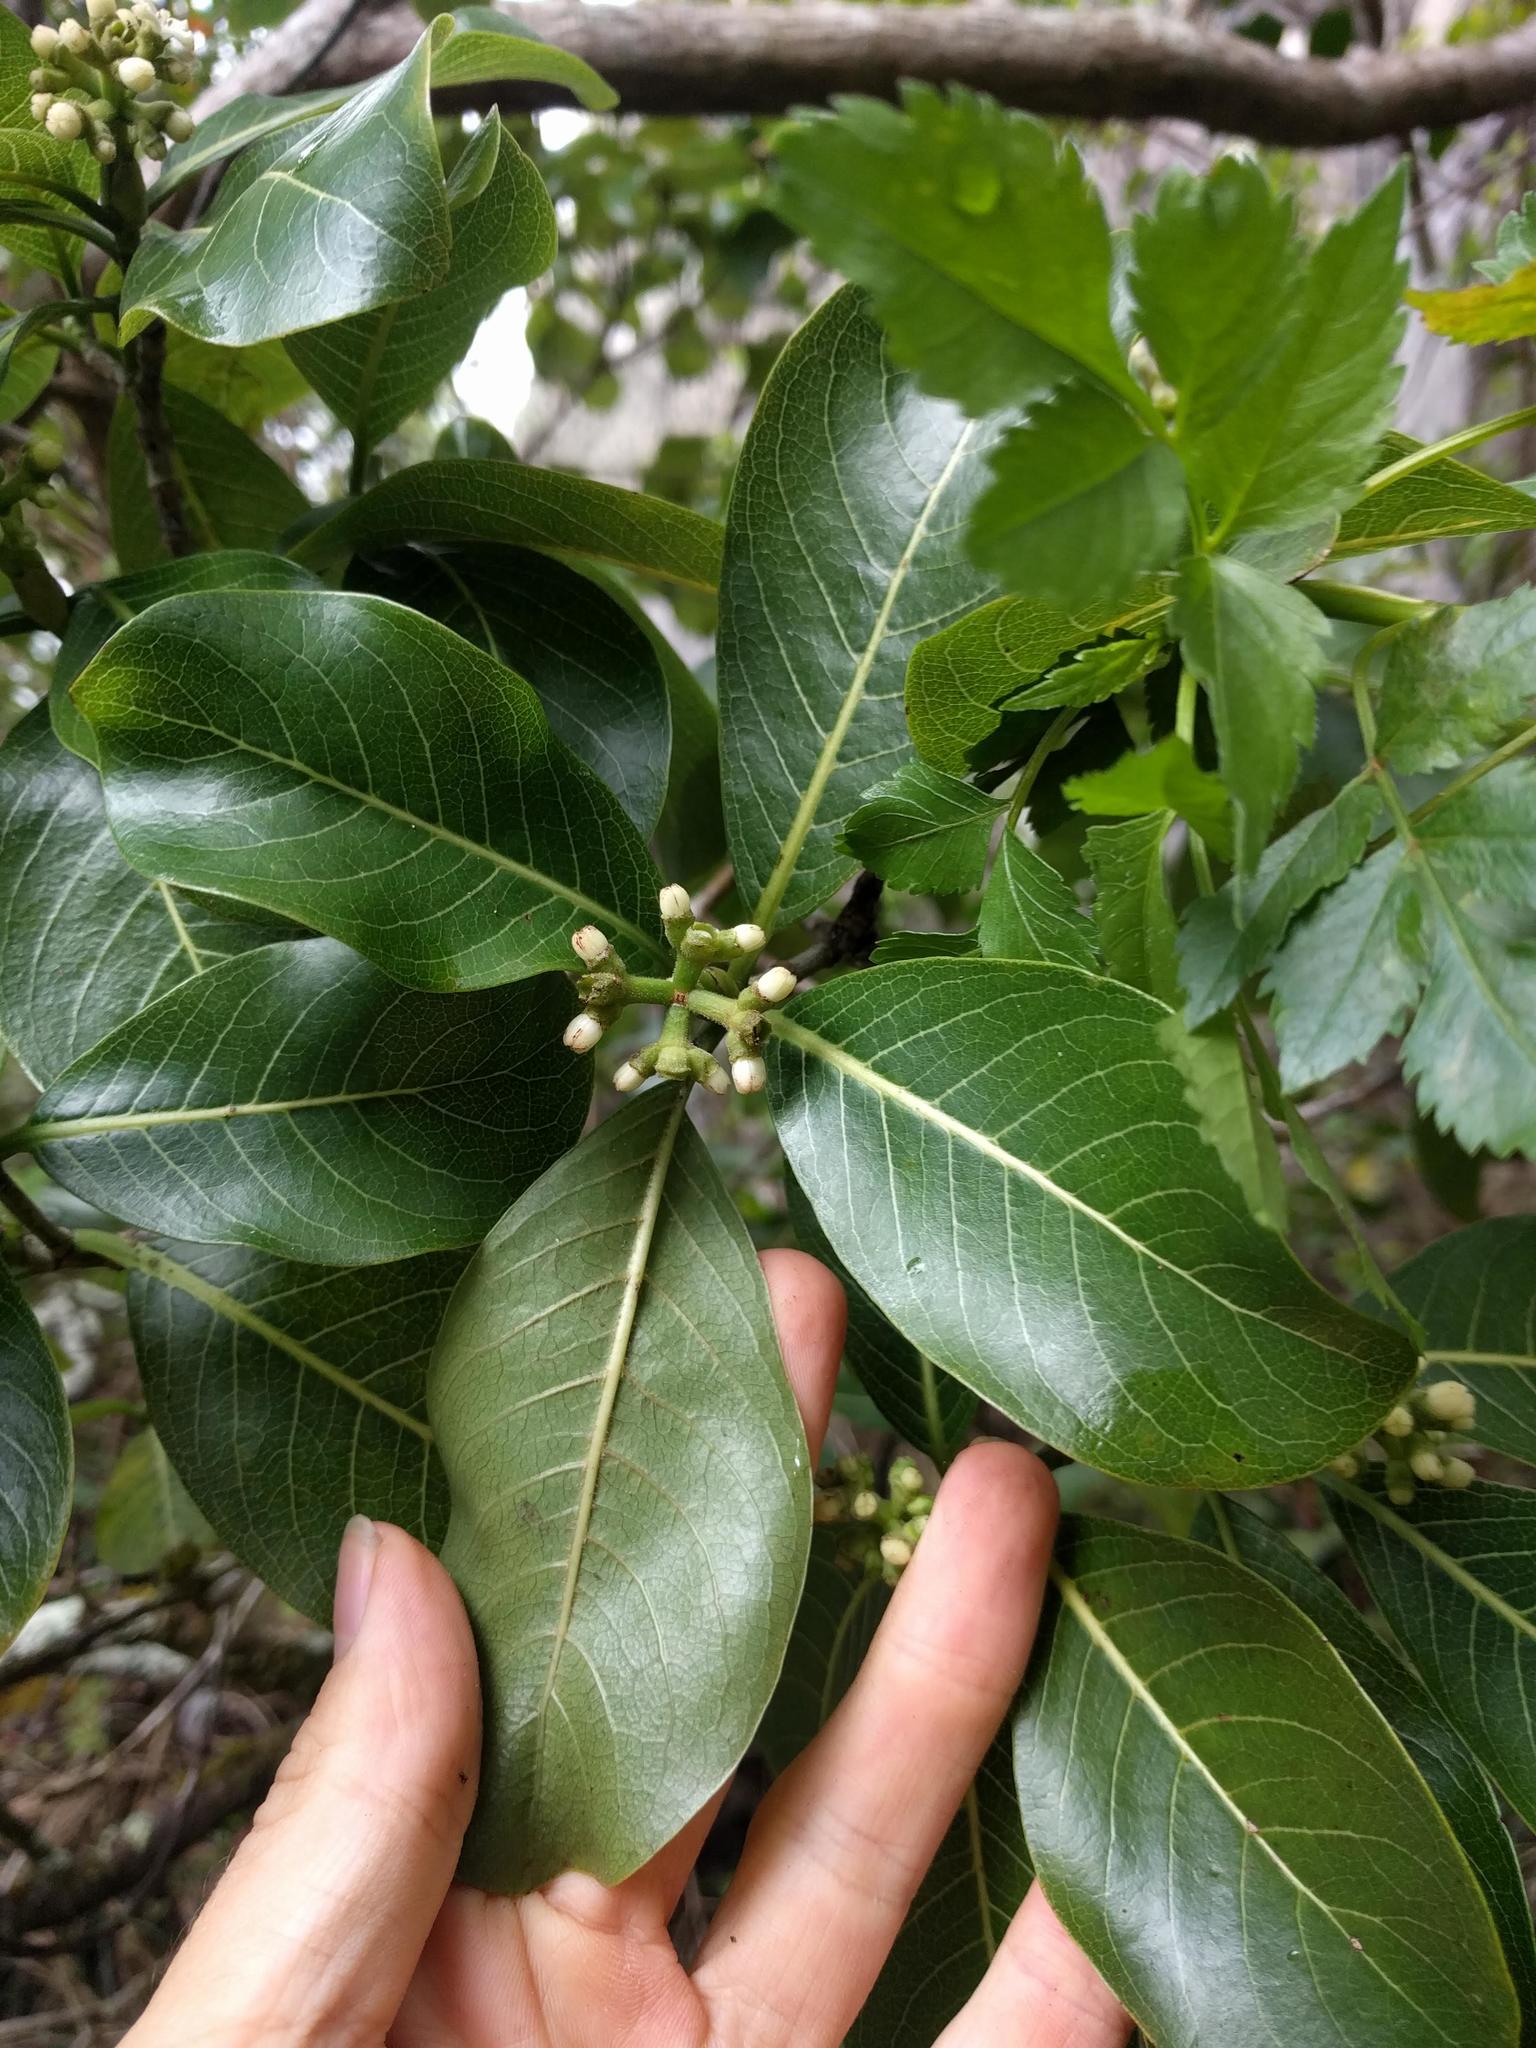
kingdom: Plantae
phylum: Tracheophyta
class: Magnoliopsida
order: Gentianales
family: Rubiaceae
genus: Psychotria
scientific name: Psychotria hathewayi
